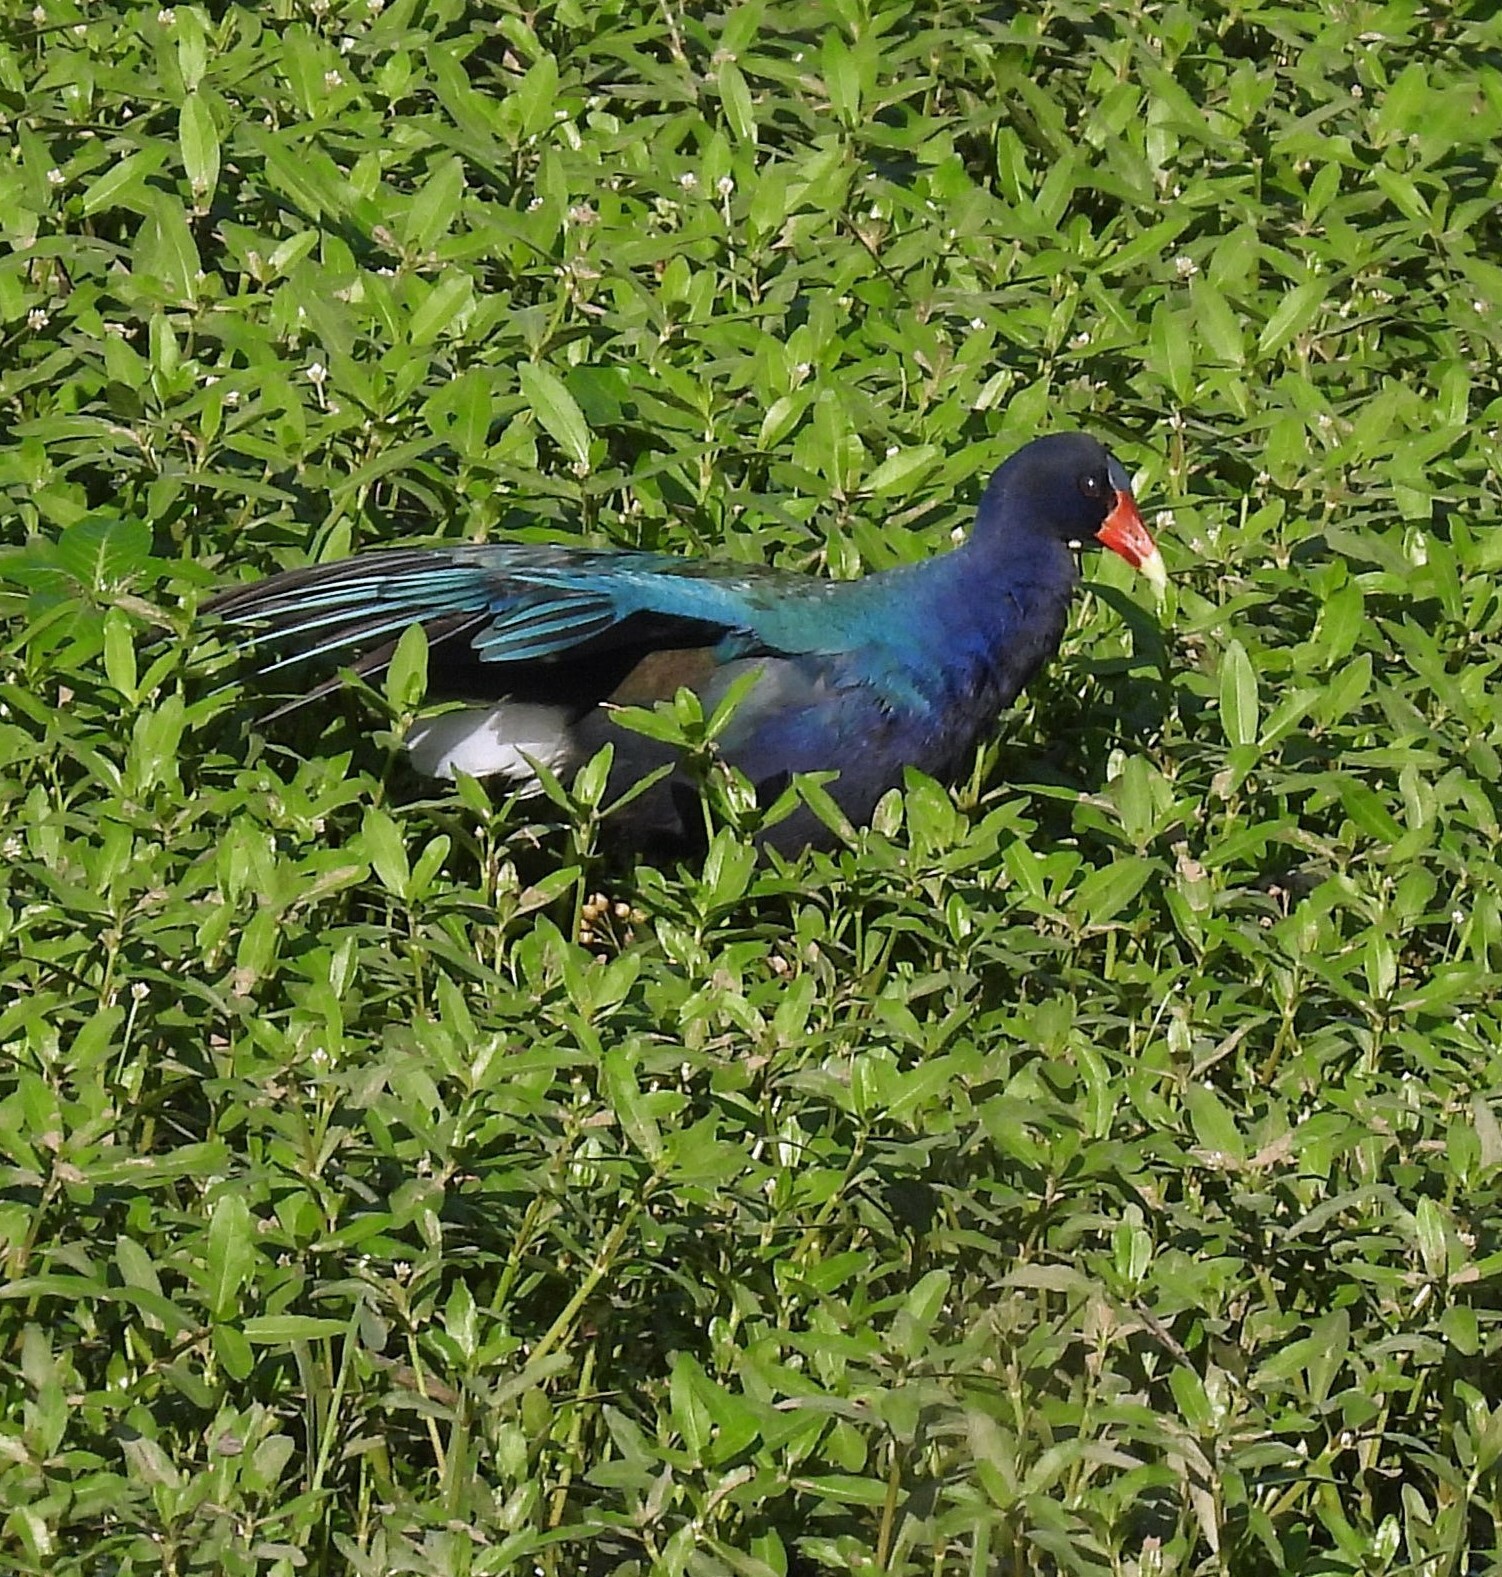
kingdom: Animalia
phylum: Chordata
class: Aves
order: Gruiformes
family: Rallidae
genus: Porphyrio
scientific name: Porphyrio martinica
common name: Purple gallinule
